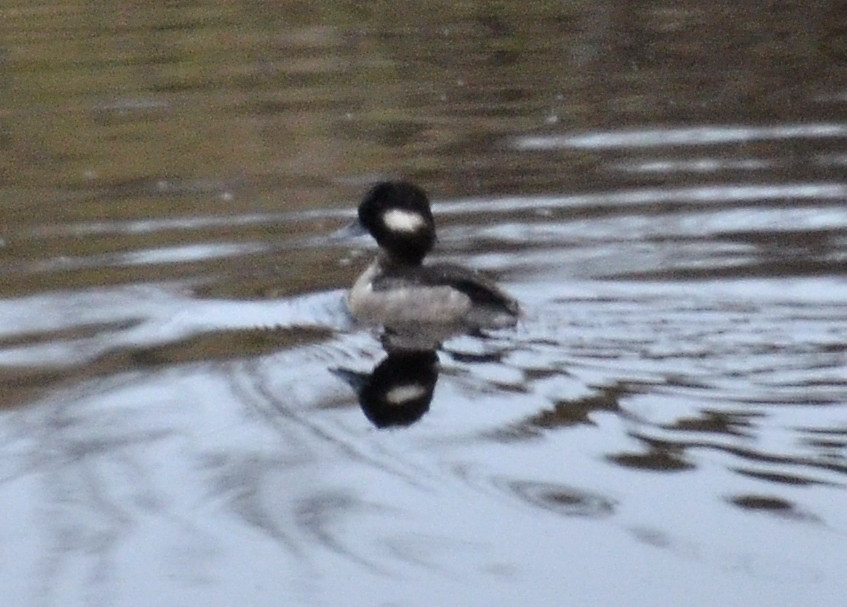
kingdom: Animalia
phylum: Chordata
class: Aves
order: Anseriformes
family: Anatidae
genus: Bucephala
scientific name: Bucephala albeola
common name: Bufflehead
